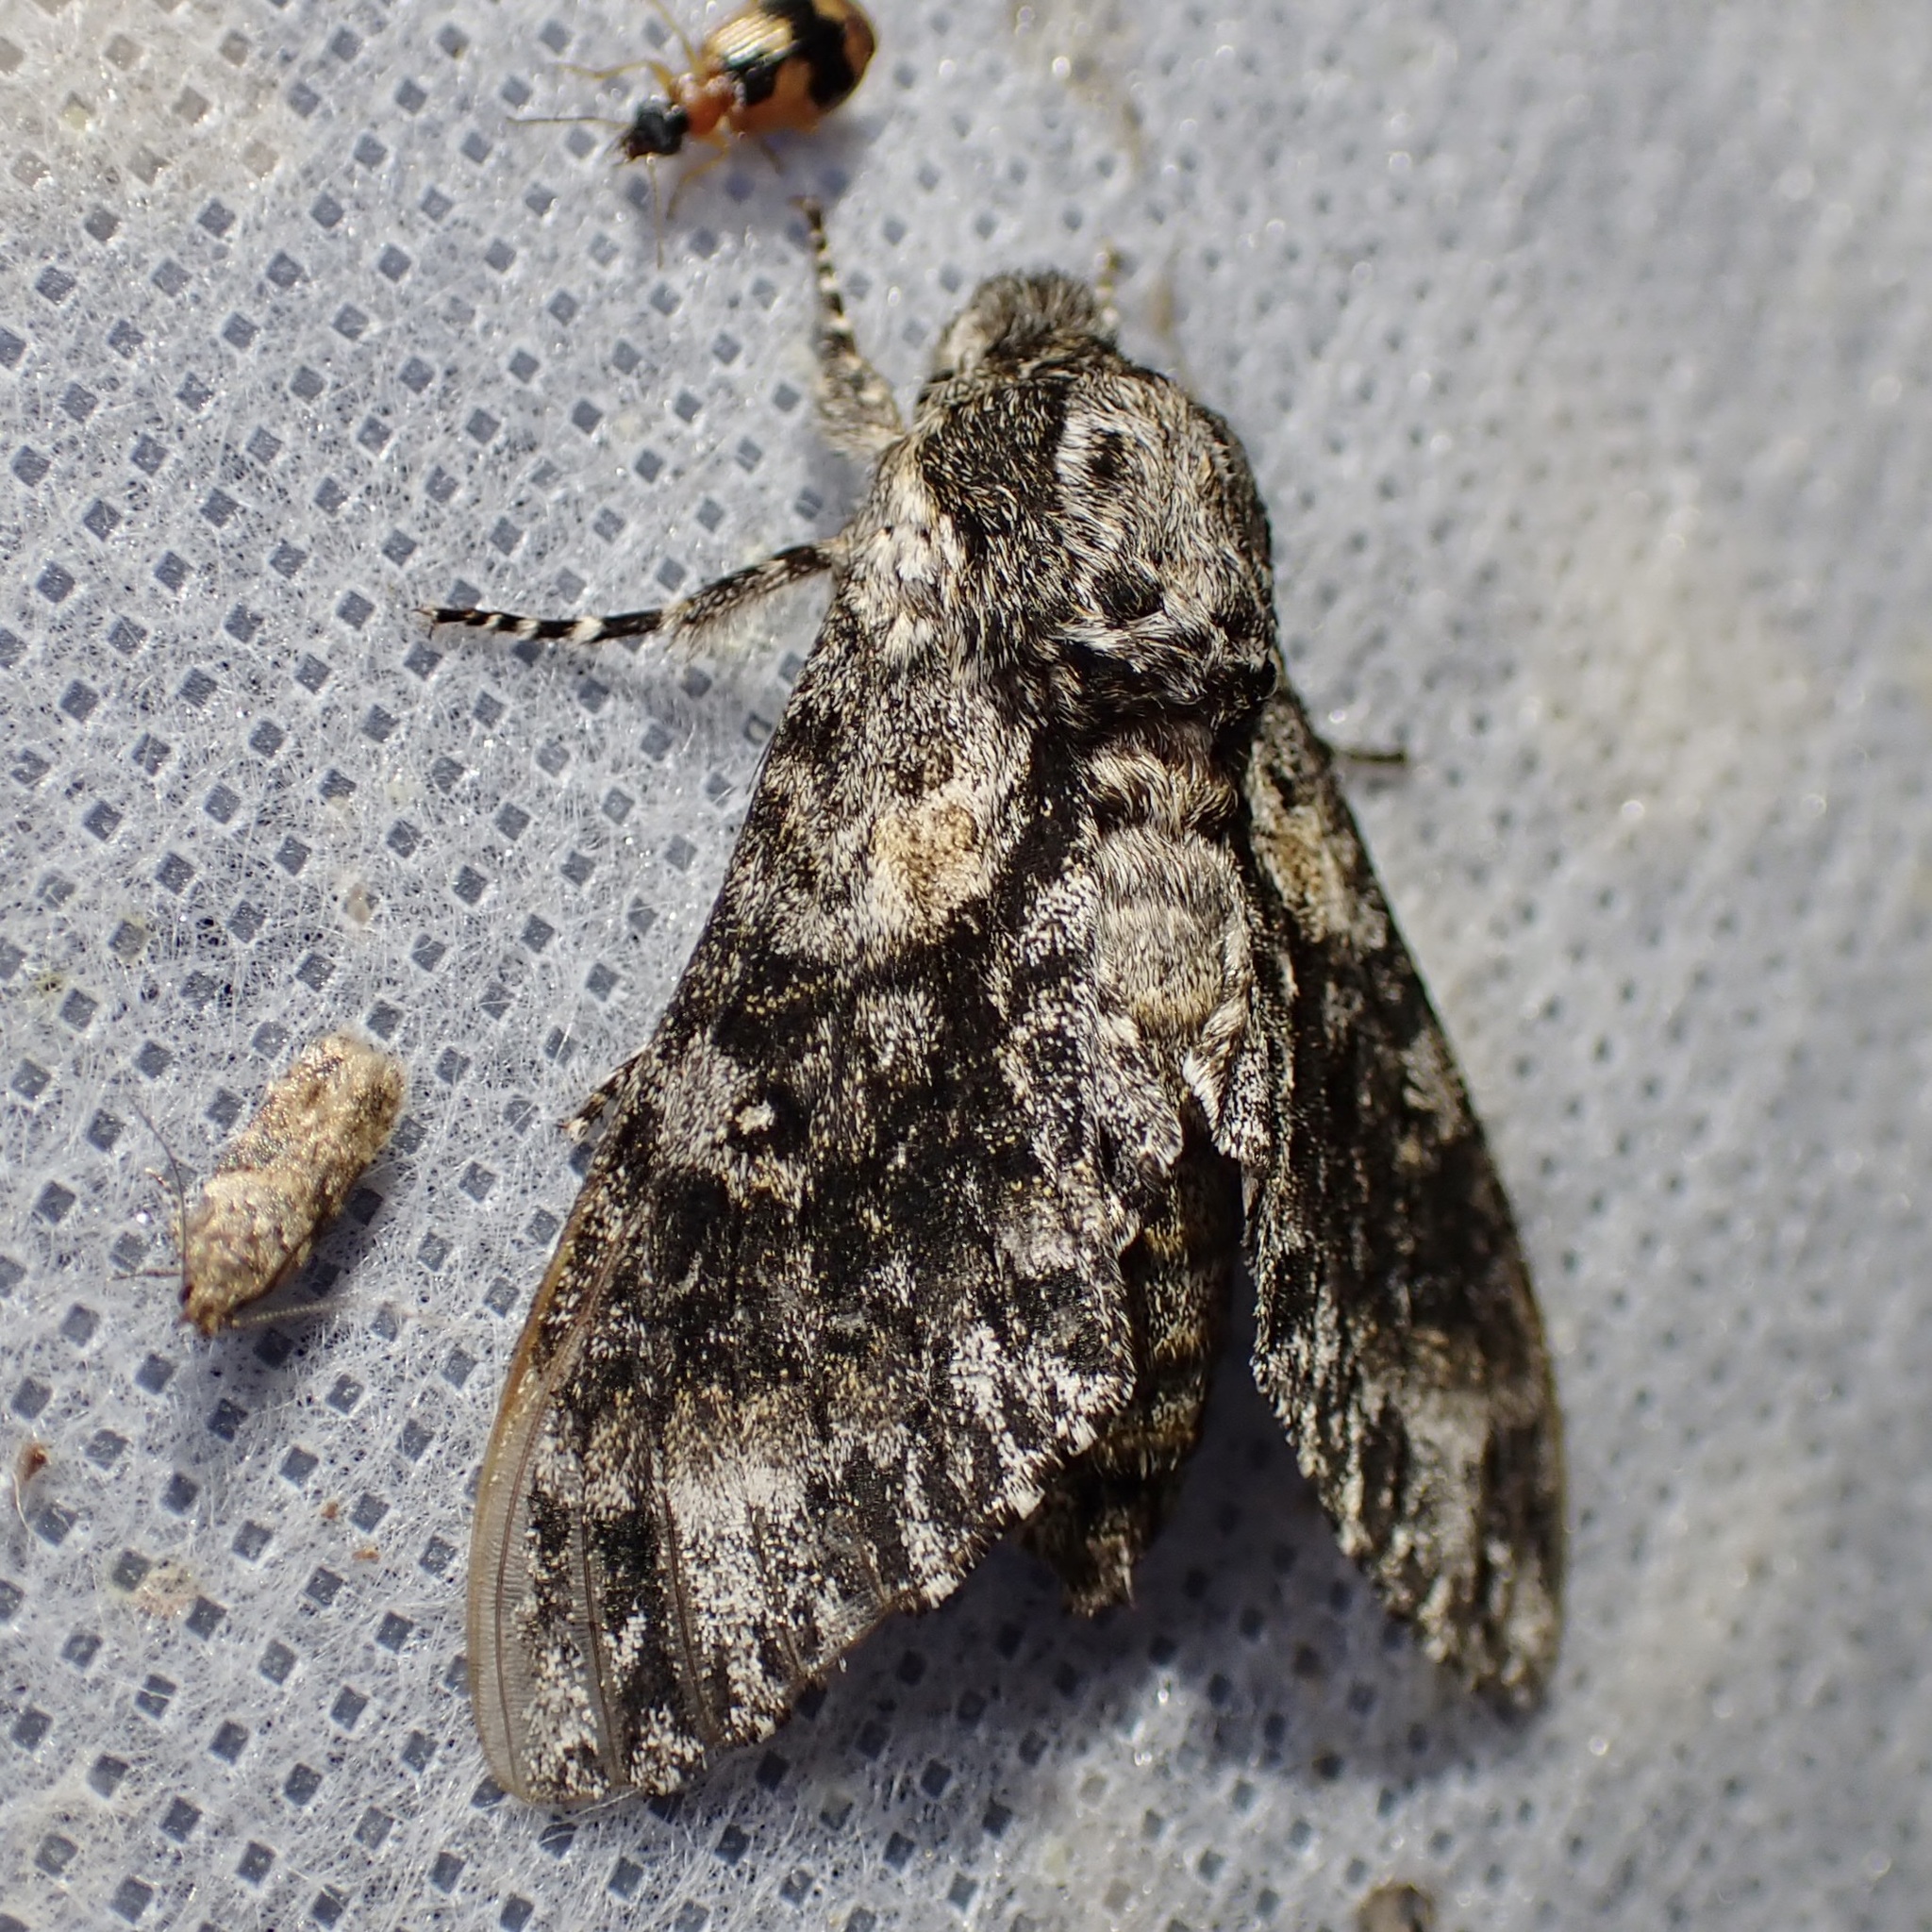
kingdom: Animalia
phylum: Arthropoda
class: Insecta
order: Lepidoptera
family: Sphingidae
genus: Dolbogene
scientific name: Dolbogene hartwegii
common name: Hartweg's sphinx
